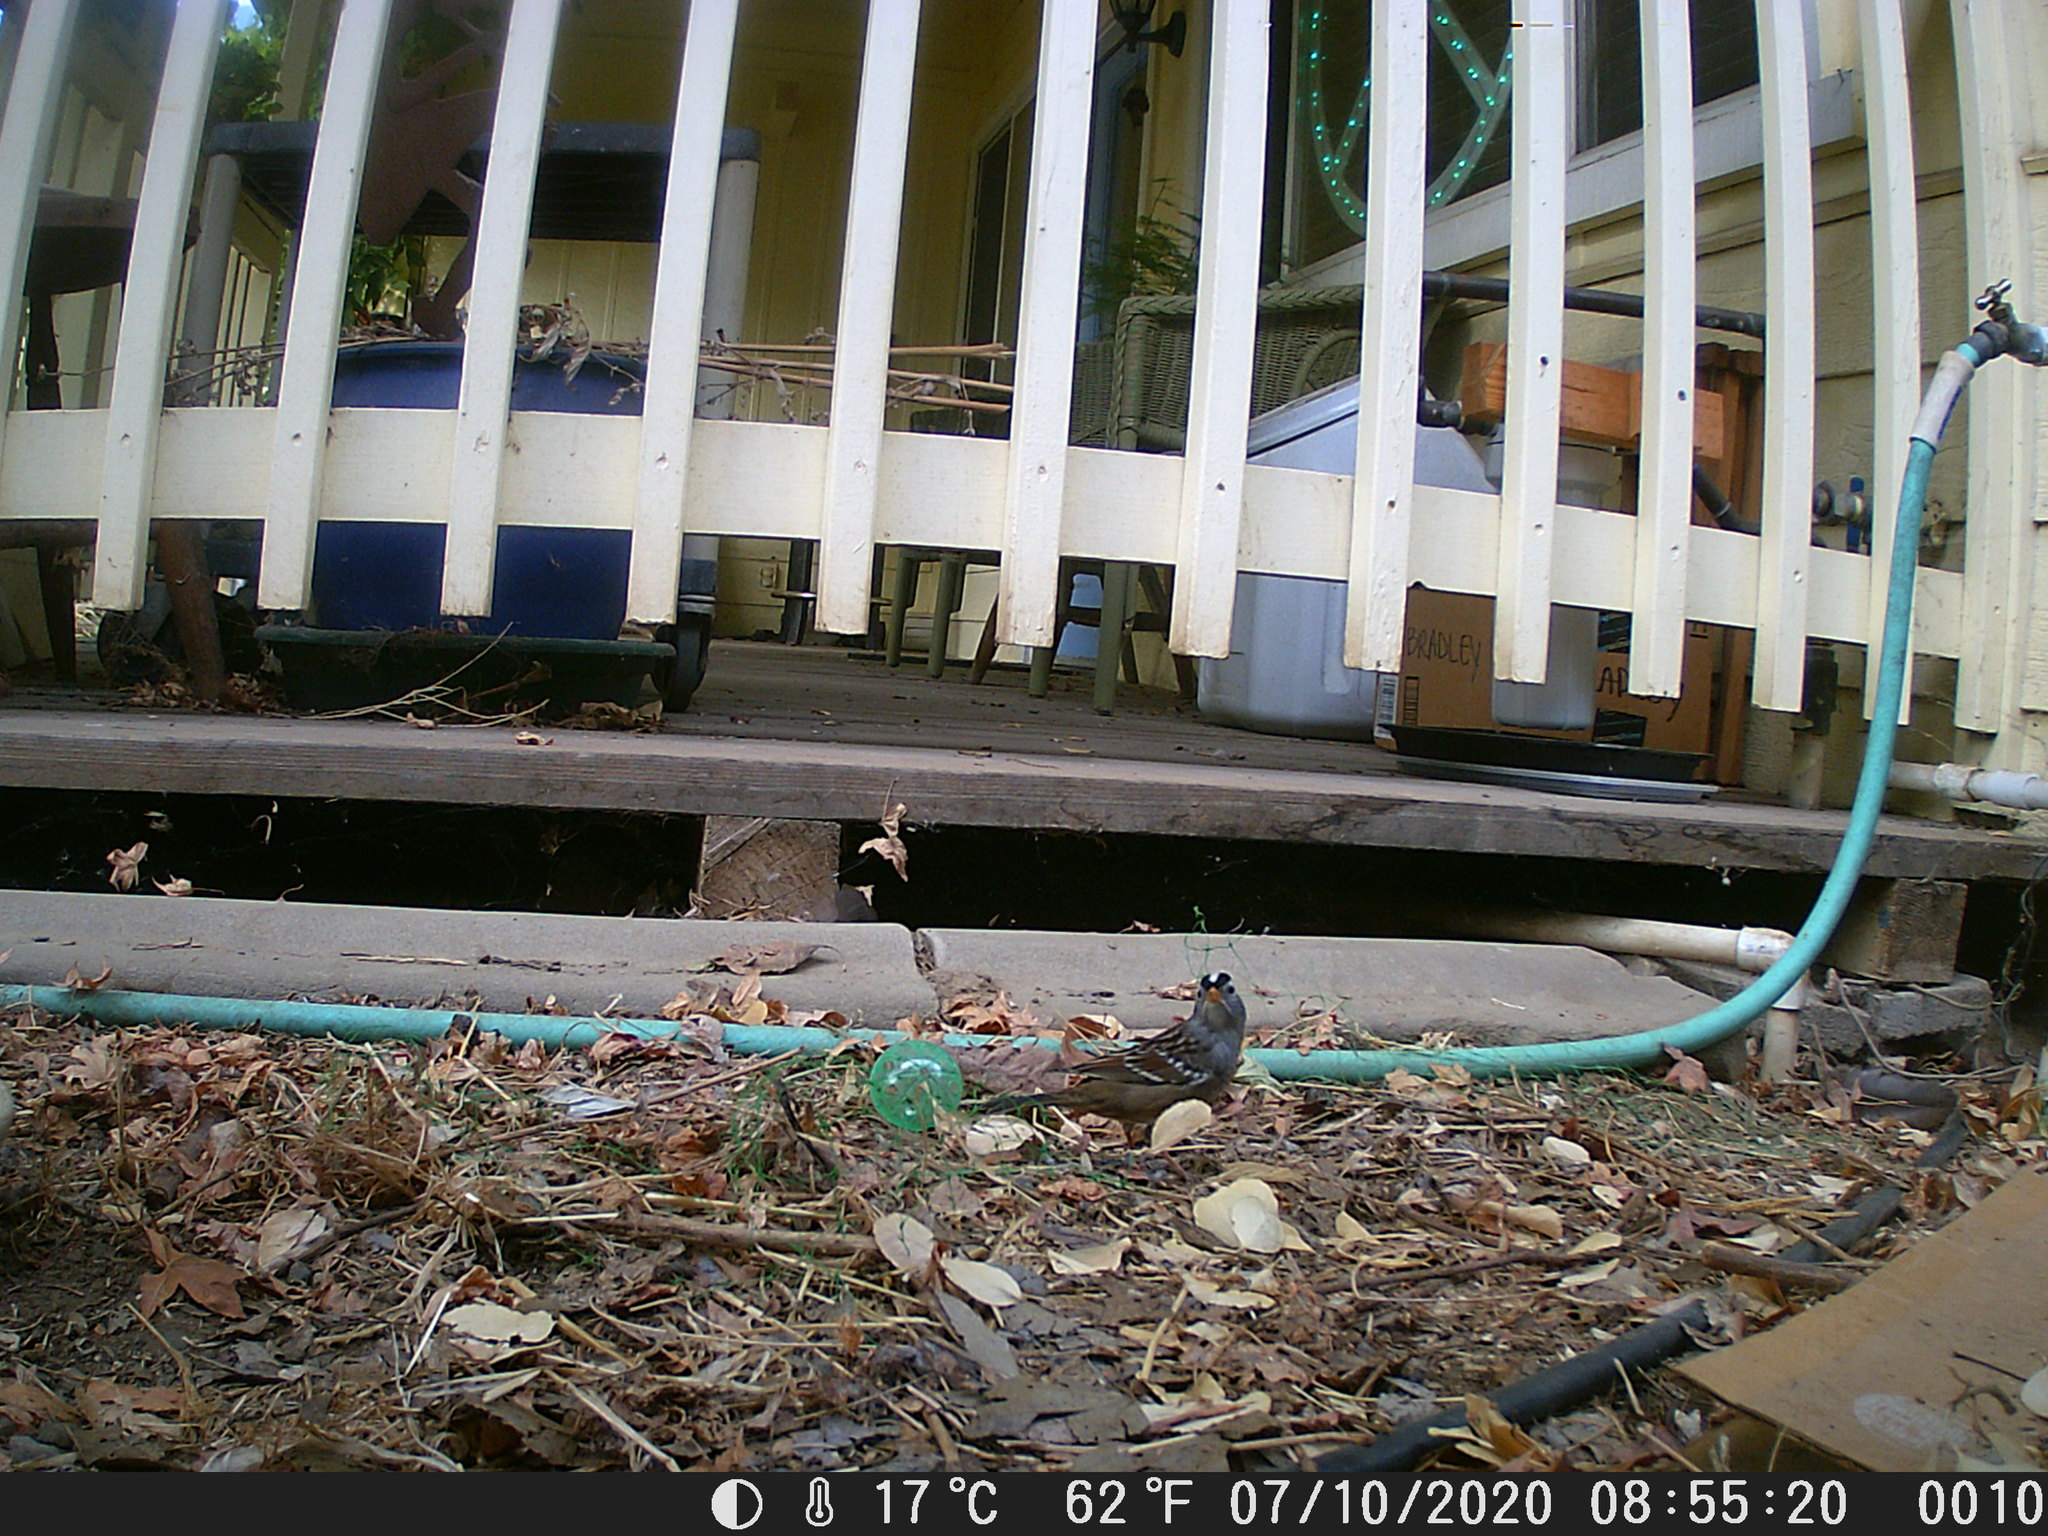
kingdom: Animalia
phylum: Chordata
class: Aves
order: Passeriformes
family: Passerellidae
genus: Zonotrichia
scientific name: Zonotrichia leucophrys
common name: White-crowned sparrow
